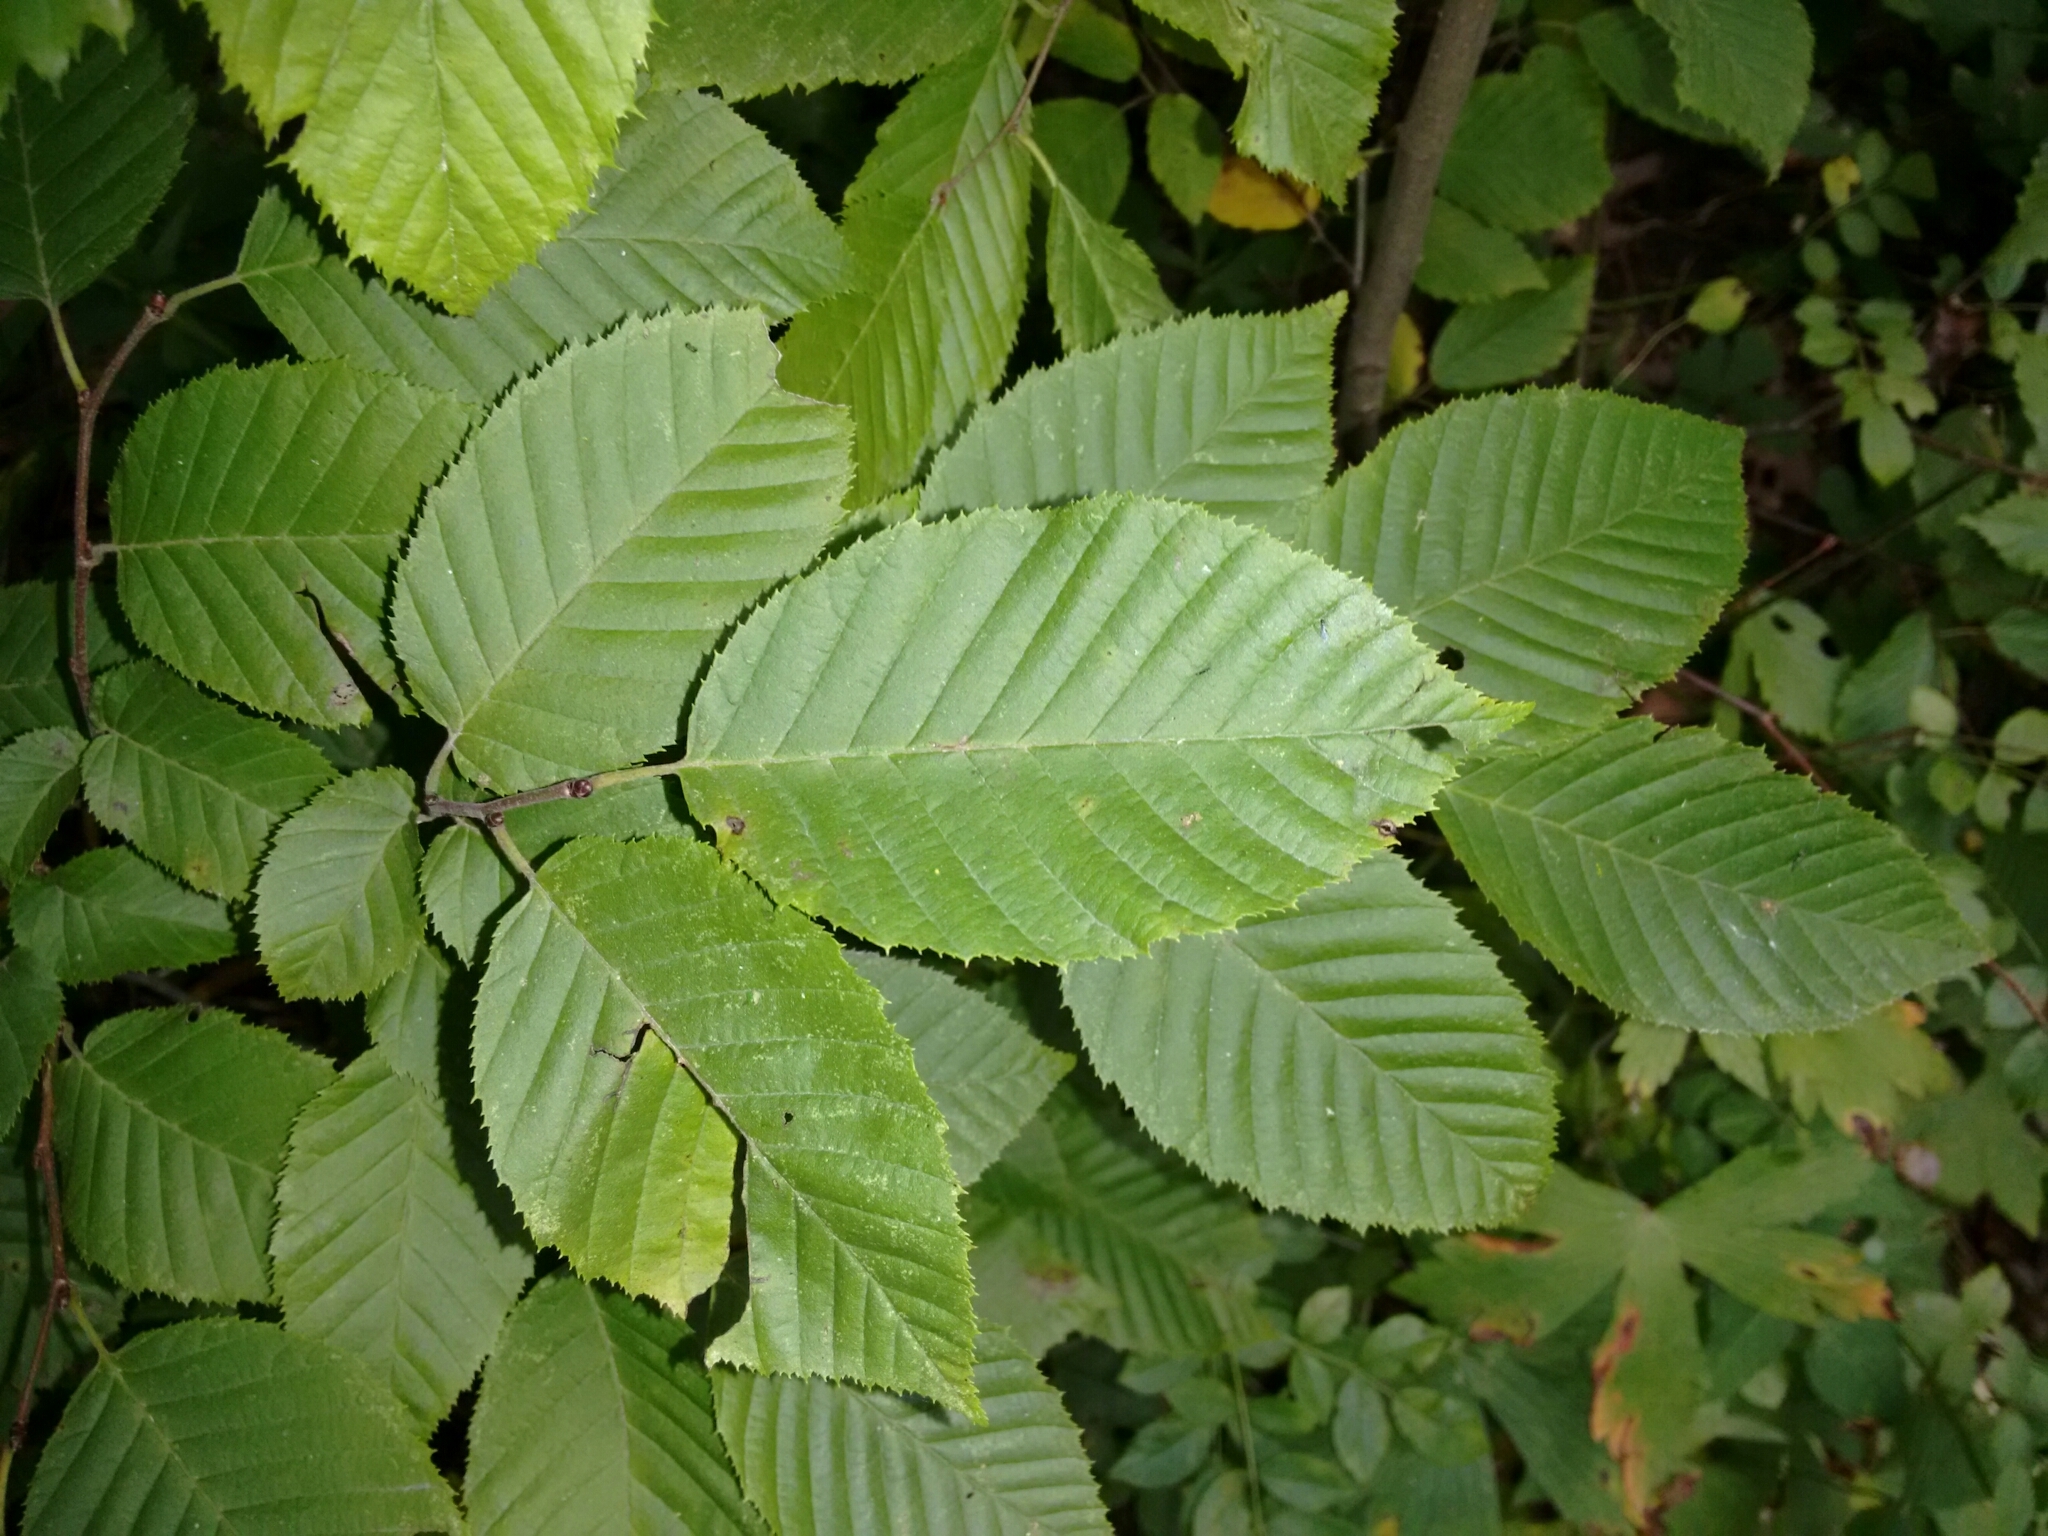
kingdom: Plantae
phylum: Tracheophyta
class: Magnoliopsida
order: Fagales
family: Betulaceae
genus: Carpinus
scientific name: Carpinus caroliniana
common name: American hornbeam
